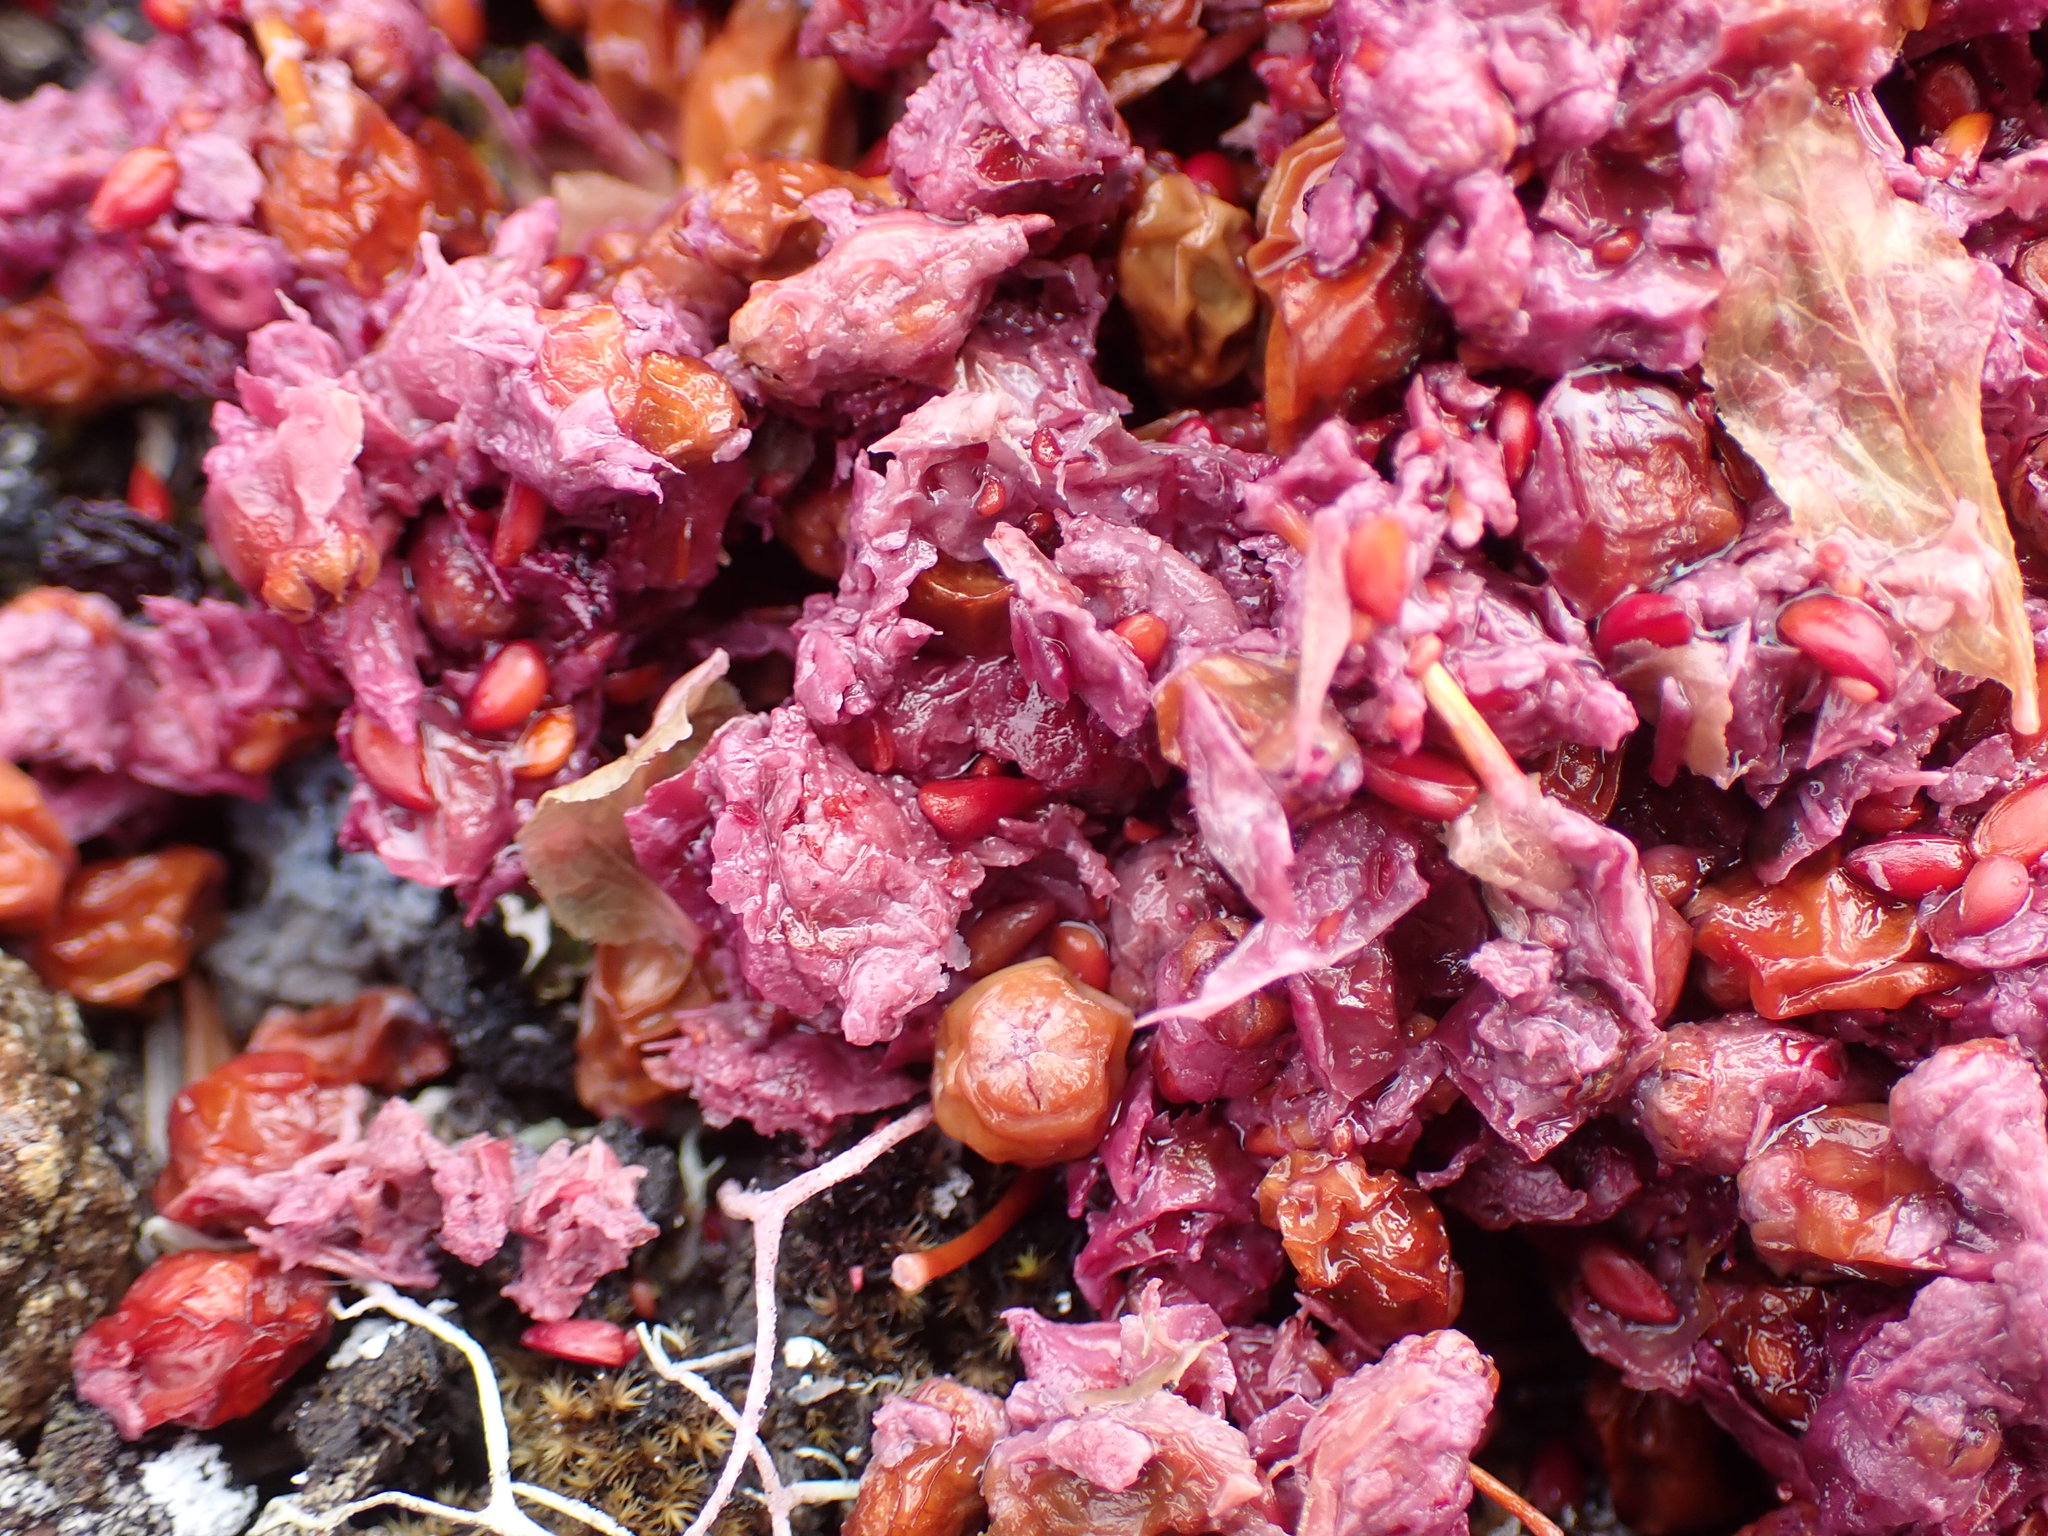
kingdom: Animalia
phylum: Chordata
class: Mammalia
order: Carnivora
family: Ursidae
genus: Ursus
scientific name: Ursus americanus
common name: American black bear
